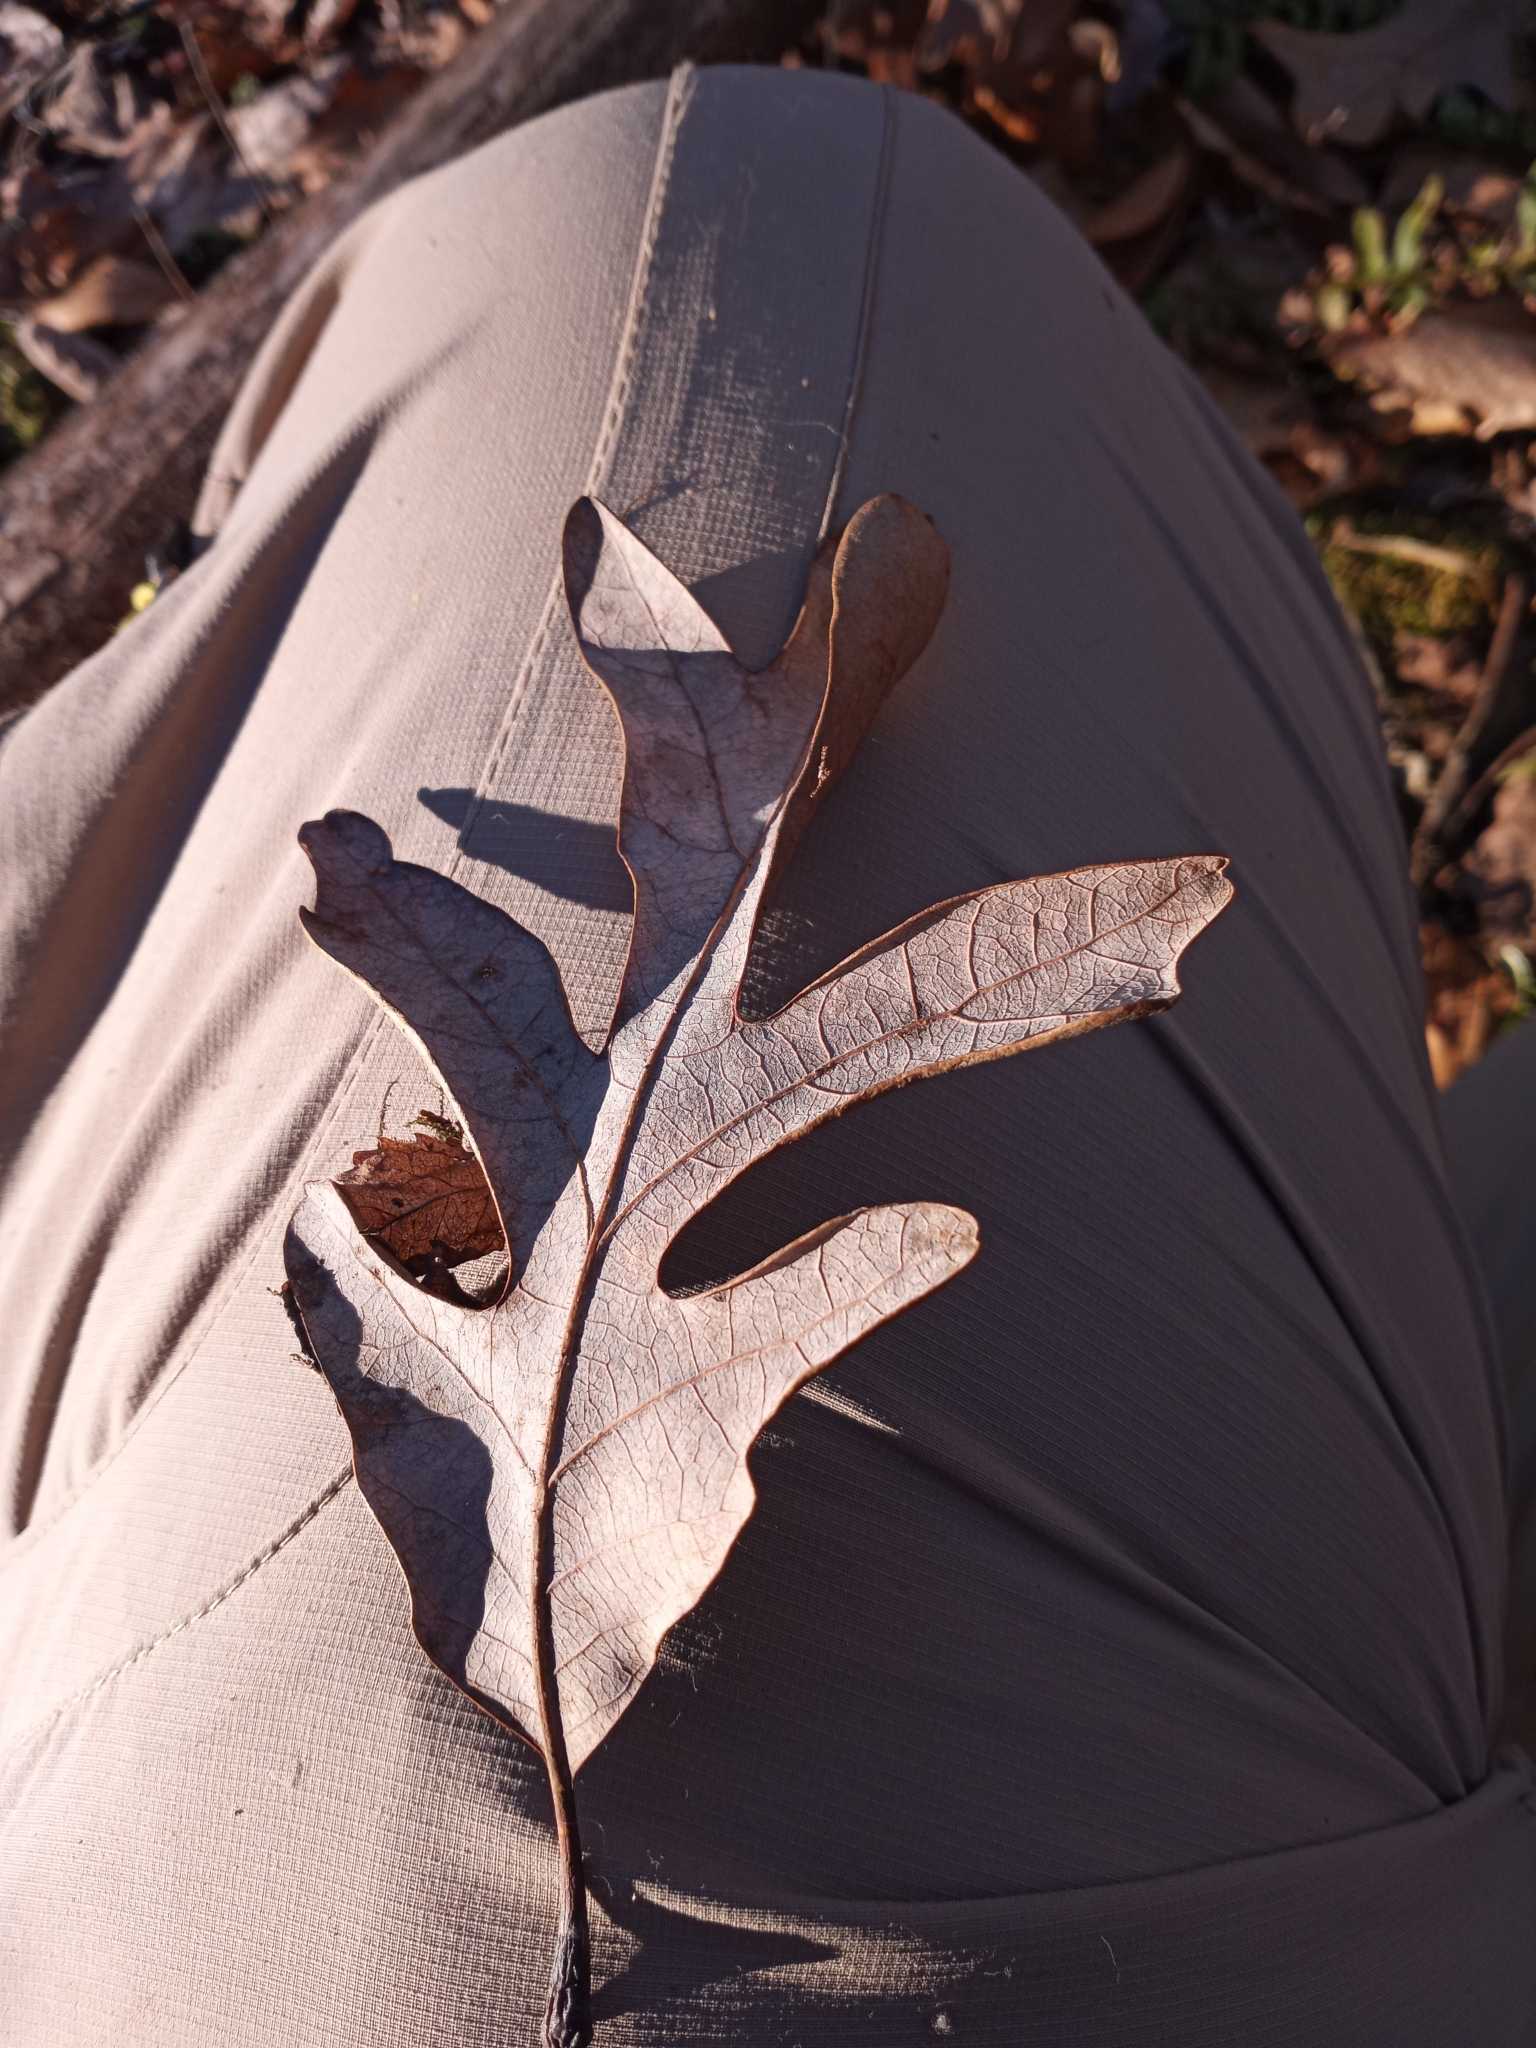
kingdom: Plantae
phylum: Tracheophyta
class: Magnoliopsida
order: Fagales
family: Fagaceae
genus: Quercus
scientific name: Quercus alba
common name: White oak
